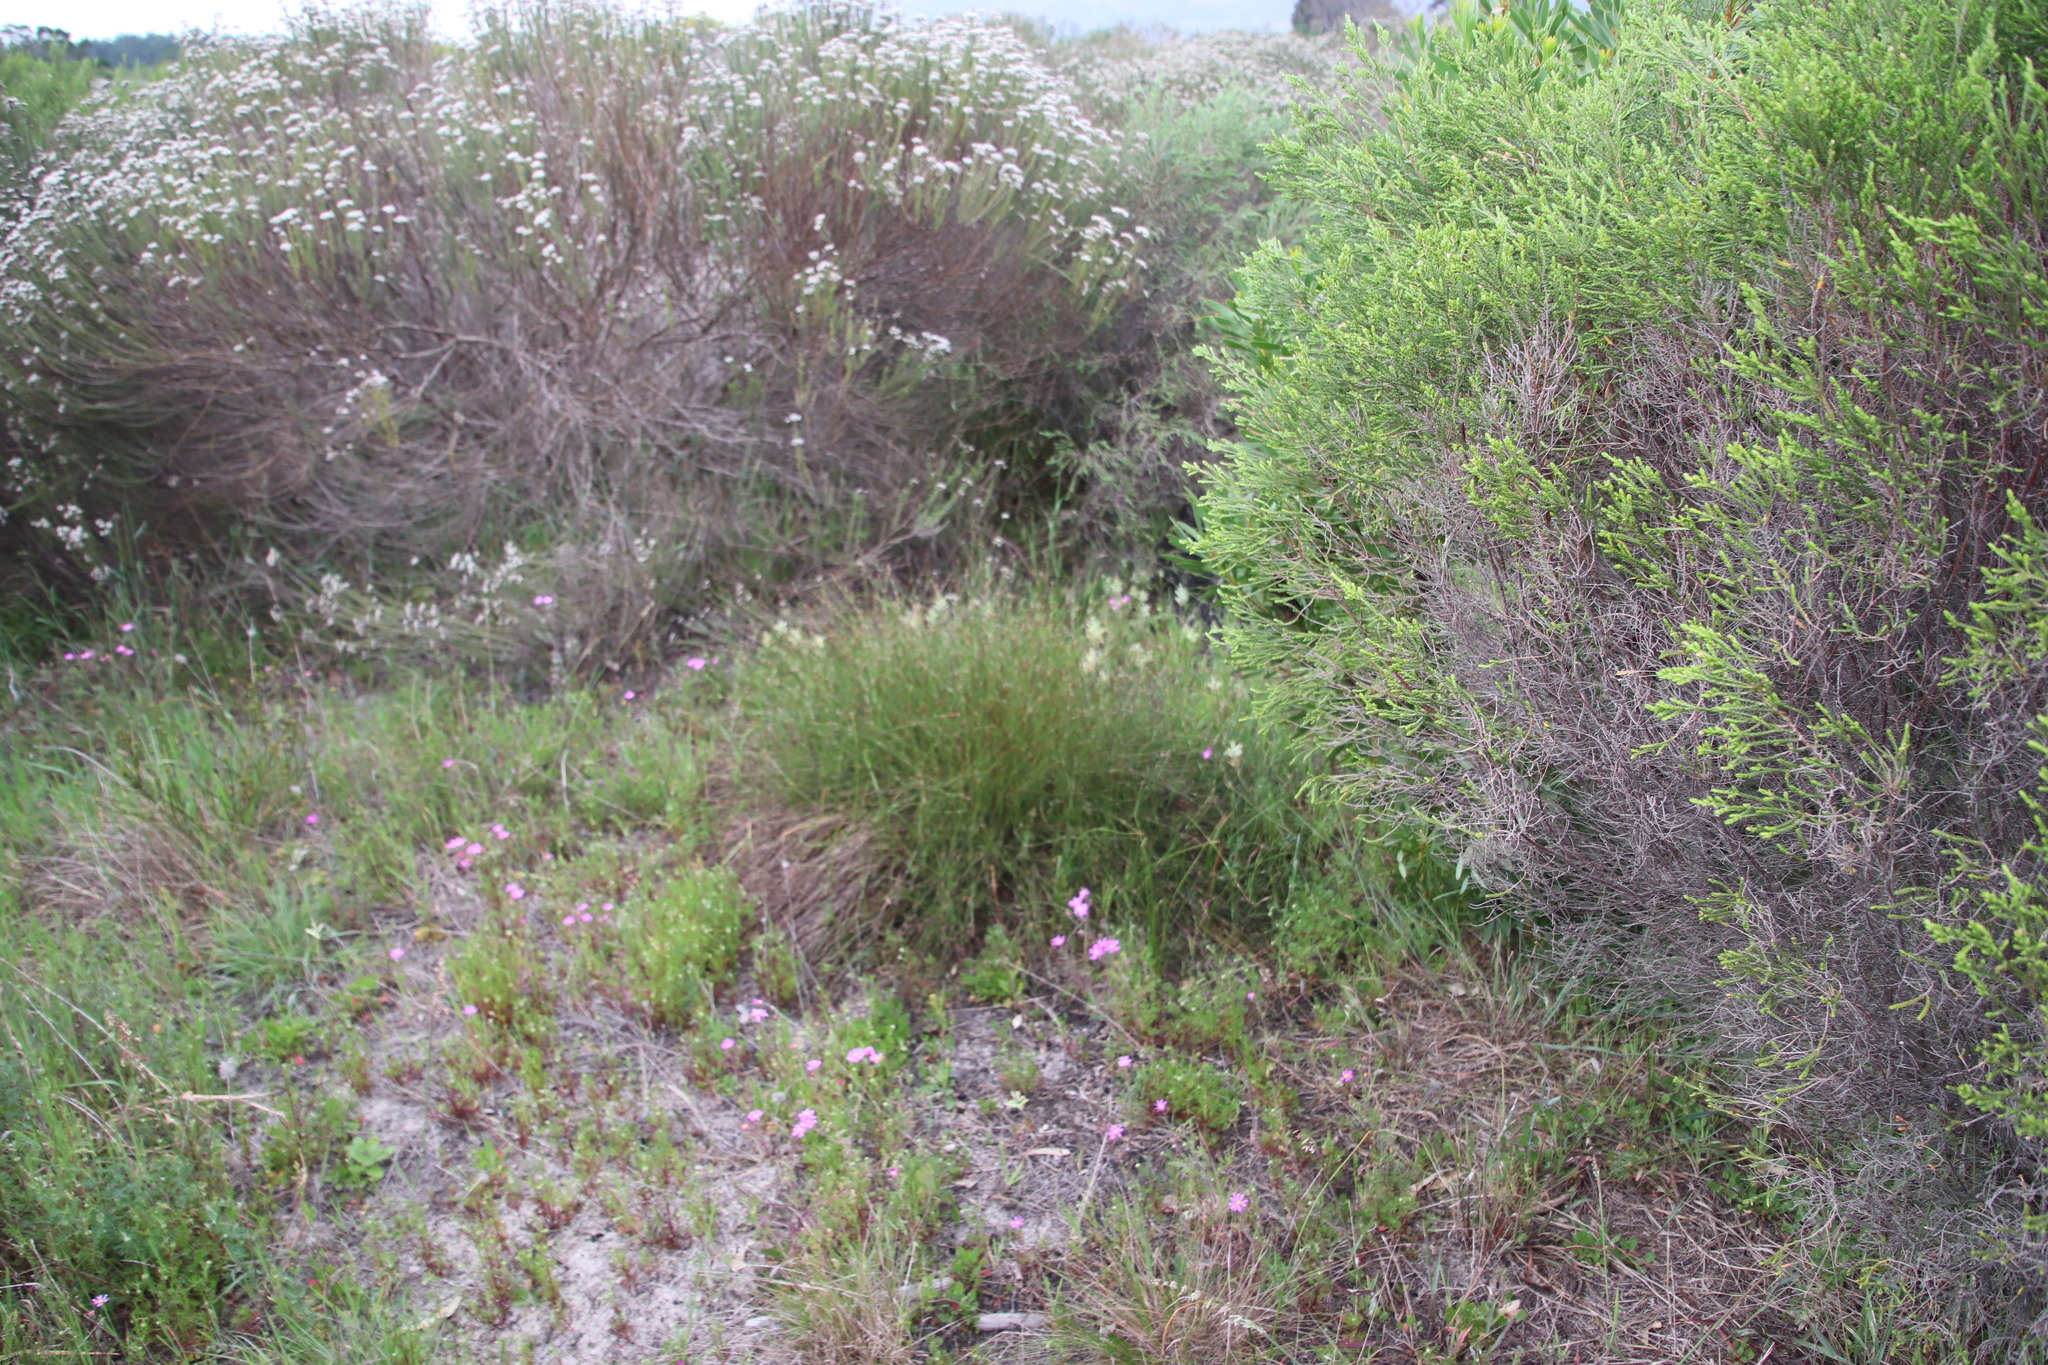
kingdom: Plantae
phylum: Tracheophyta
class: Liliopsida
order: Poales
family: Restionaceae
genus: Restio
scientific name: Restio capensis
